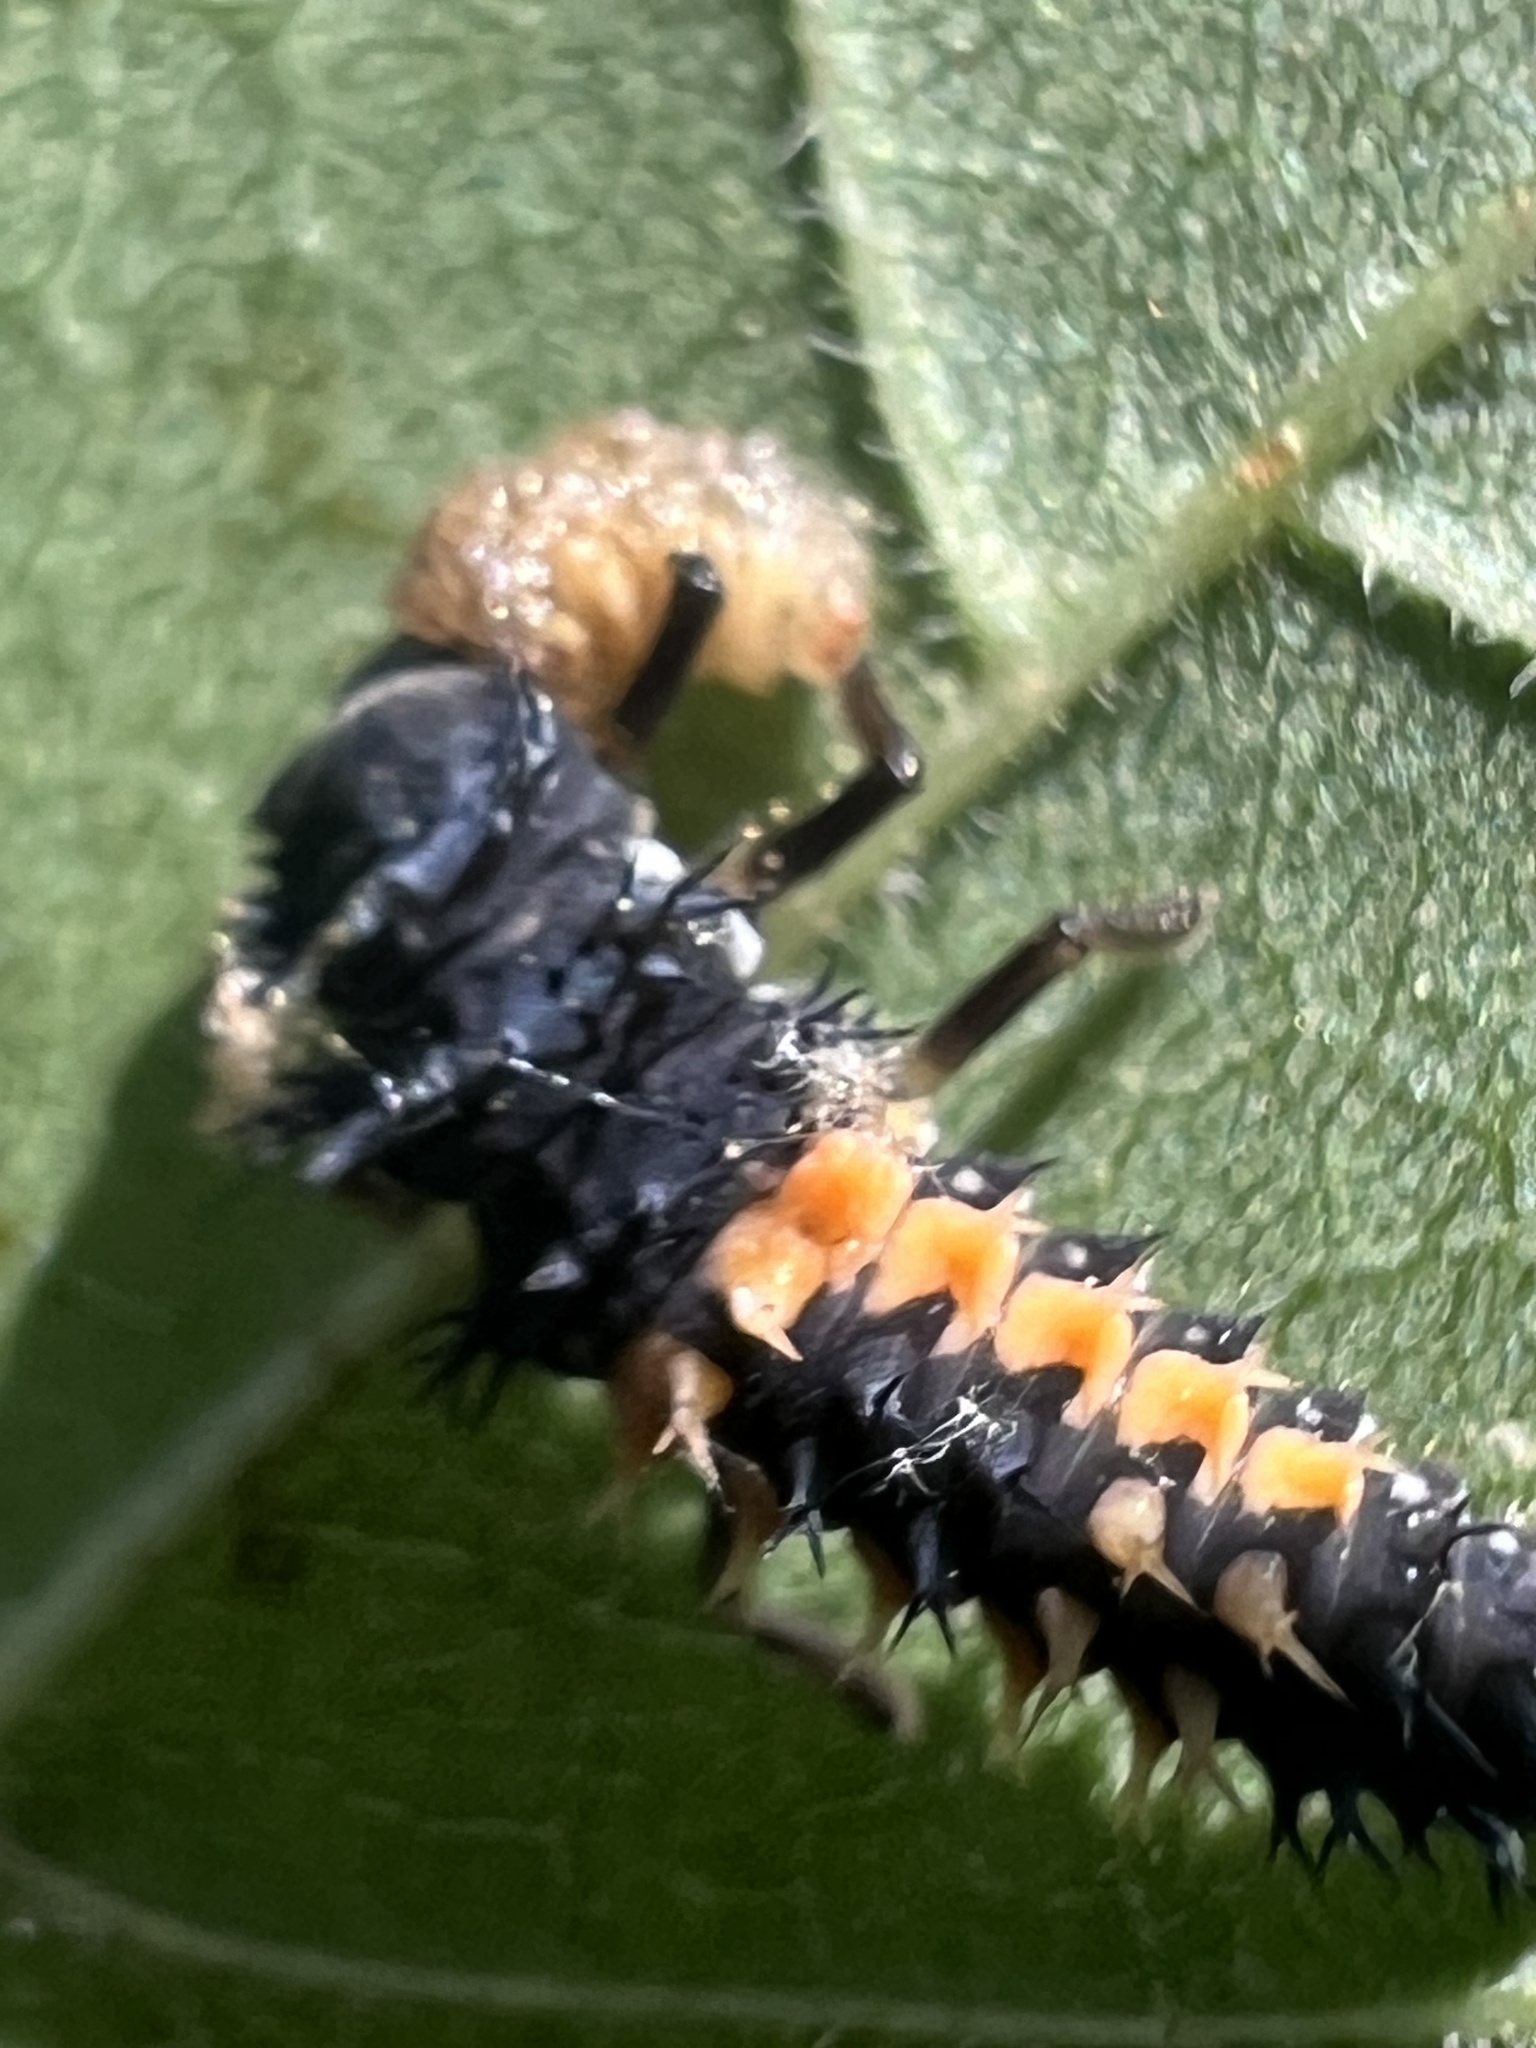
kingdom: Animalia
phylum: Arthropoda
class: Insecta
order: Coleoptera
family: Coccinellidae
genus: Harmonia
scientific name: Harmonia axyridis
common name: Harlequin ladybird
